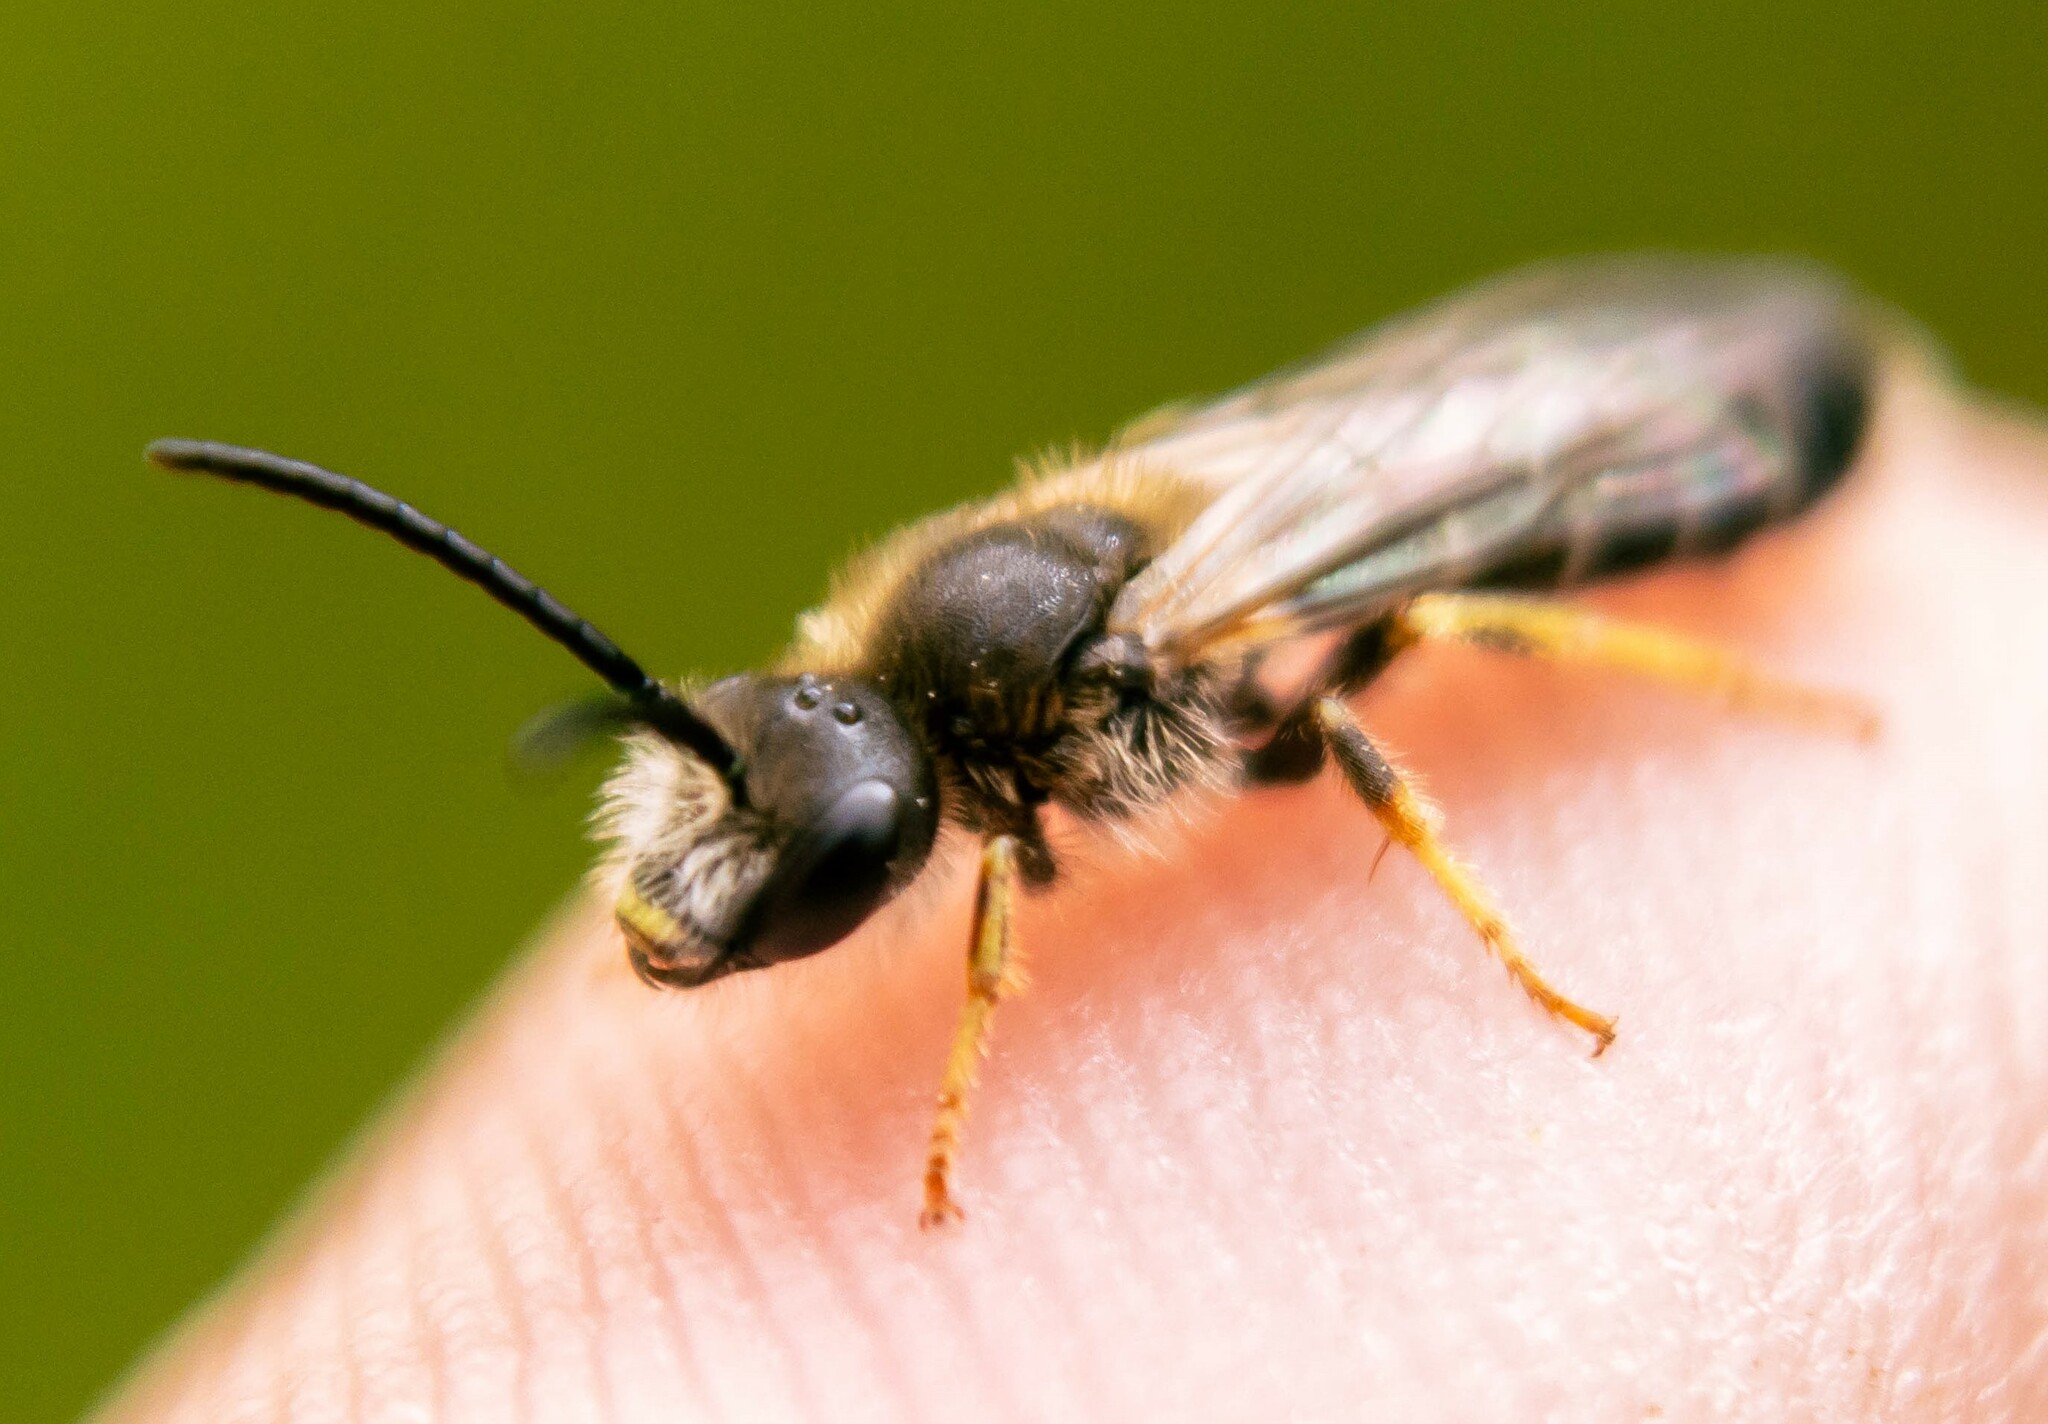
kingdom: Animalia
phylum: Arthropoda
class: Insecta
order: Hymenoptera
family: Halictidae
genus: Halictus
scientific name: Halictus rubicundus
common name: Orange-legged furrow bee
